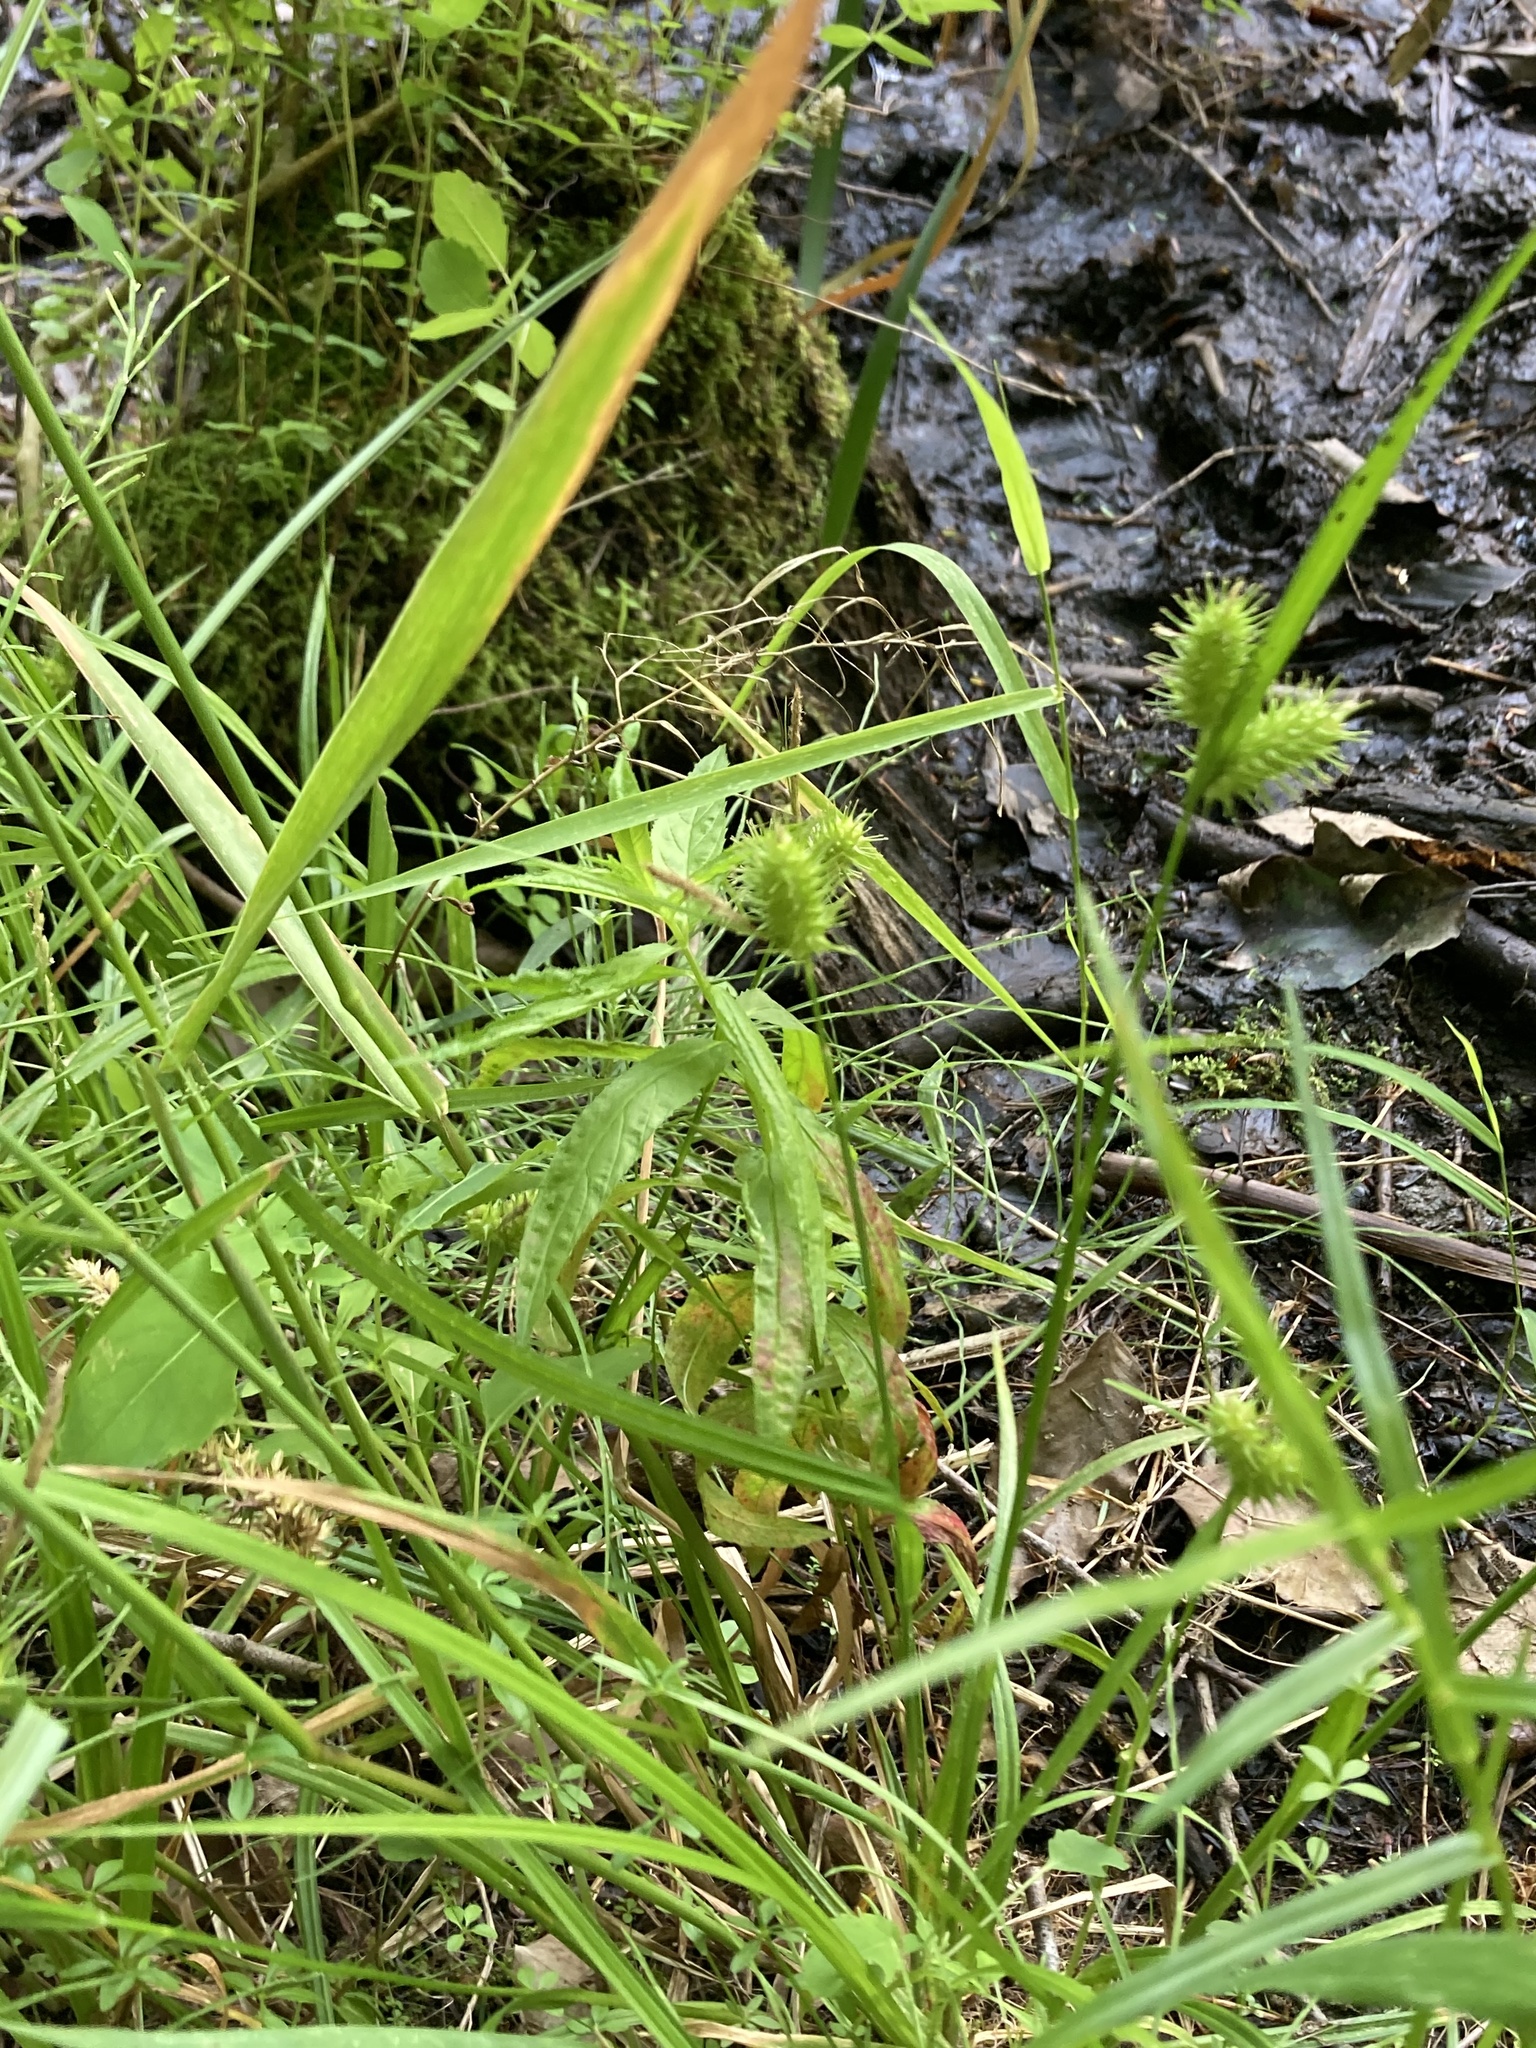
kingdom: Plantae
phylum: Tracheophyta
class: Liliopsida
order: Poales
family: Cyperaceae
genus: Carex
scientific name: Carex lurida
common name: Sallow sedge
